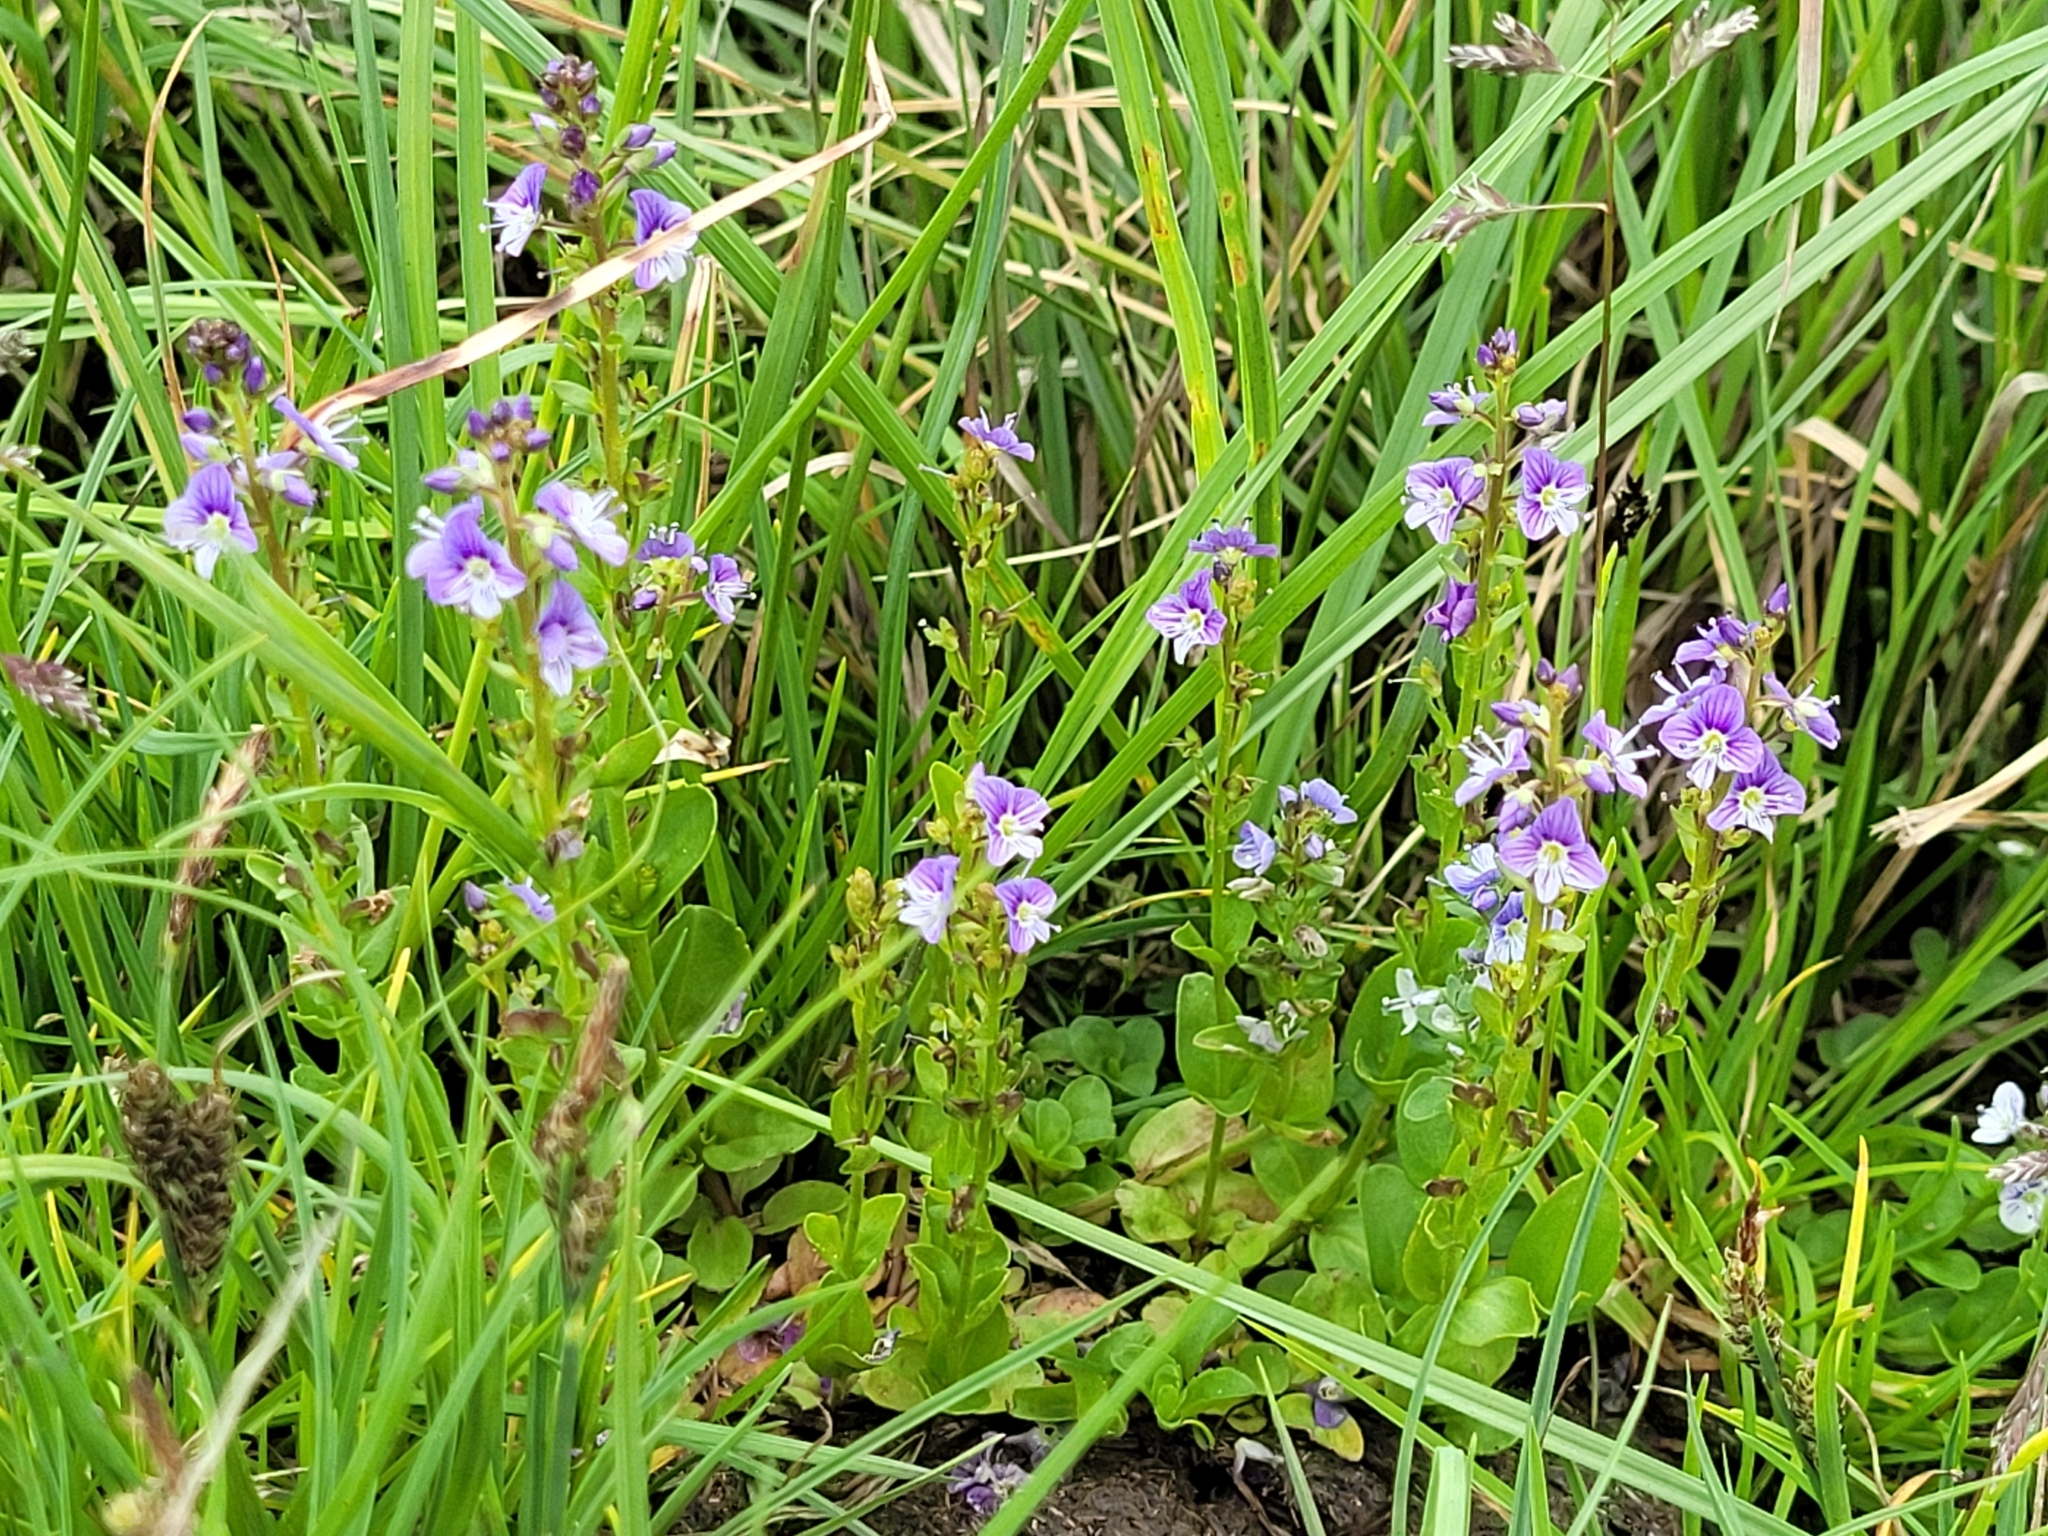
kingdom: Plantae
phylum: Tracheophyta
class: Magnoliopsida
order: Lamiales
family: Plantaginaceae
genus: Veronica
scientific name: Veronica serpyllifolia
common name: Thyme-leaved speedwell
